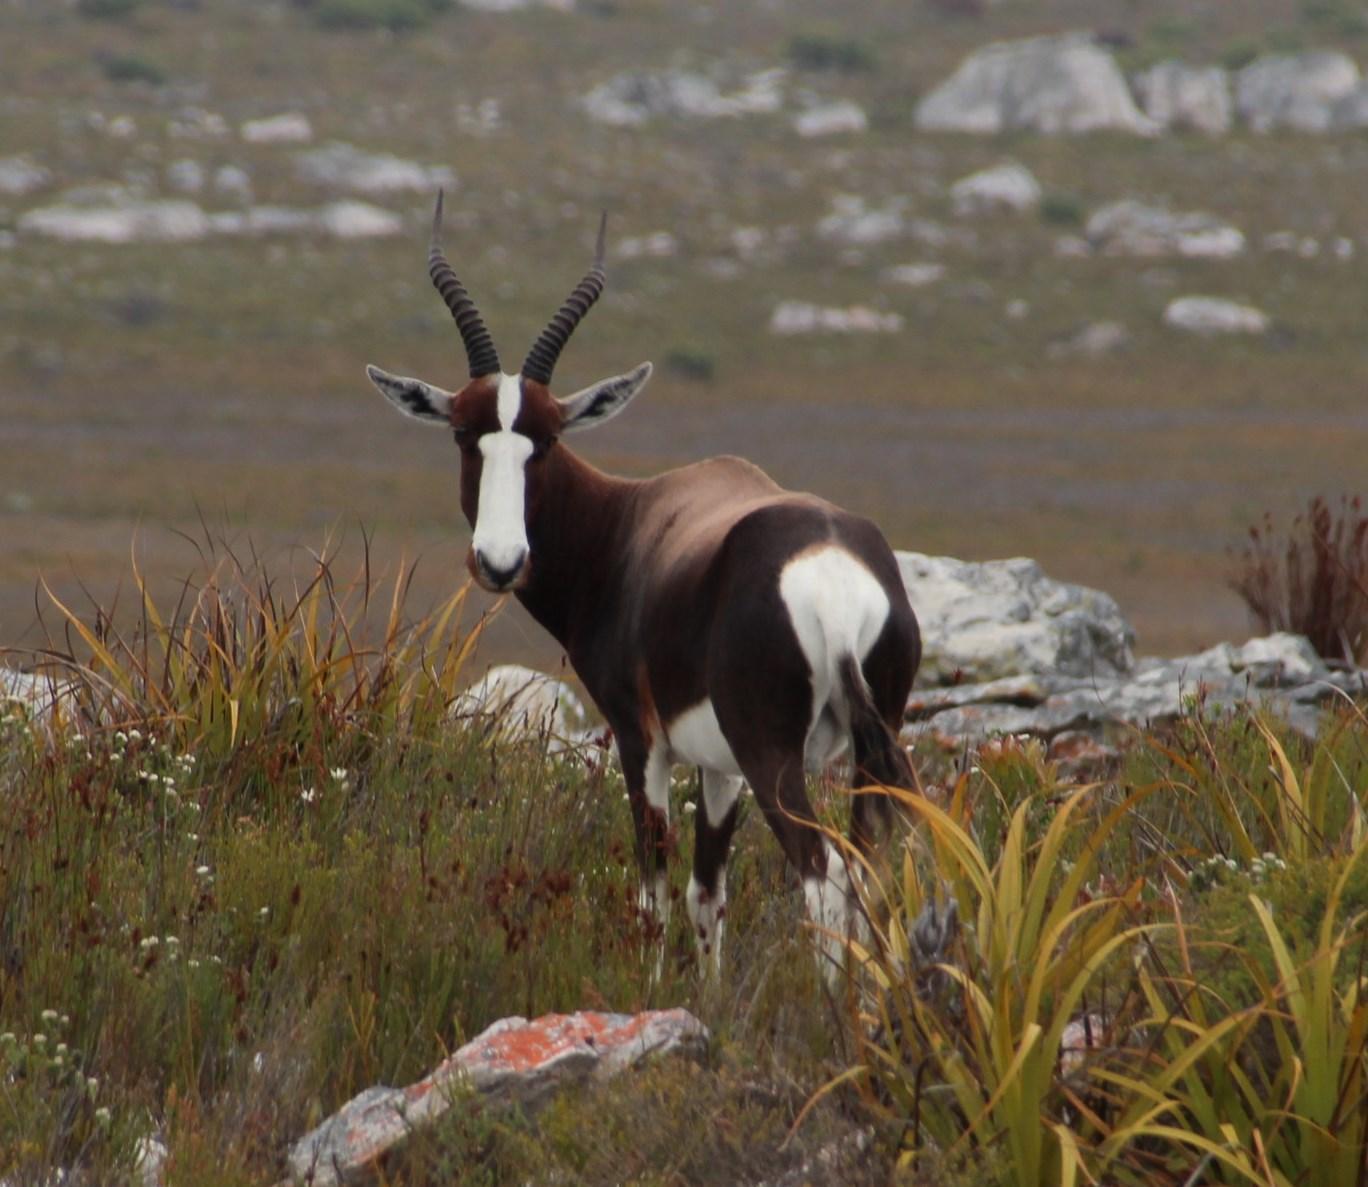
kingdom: Animalia
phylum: Chordata
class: Mammalia
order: Artiodactyla
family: Bovidae
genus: Damaliscus
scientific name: Damaliscus pygargus
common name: Bontebok
